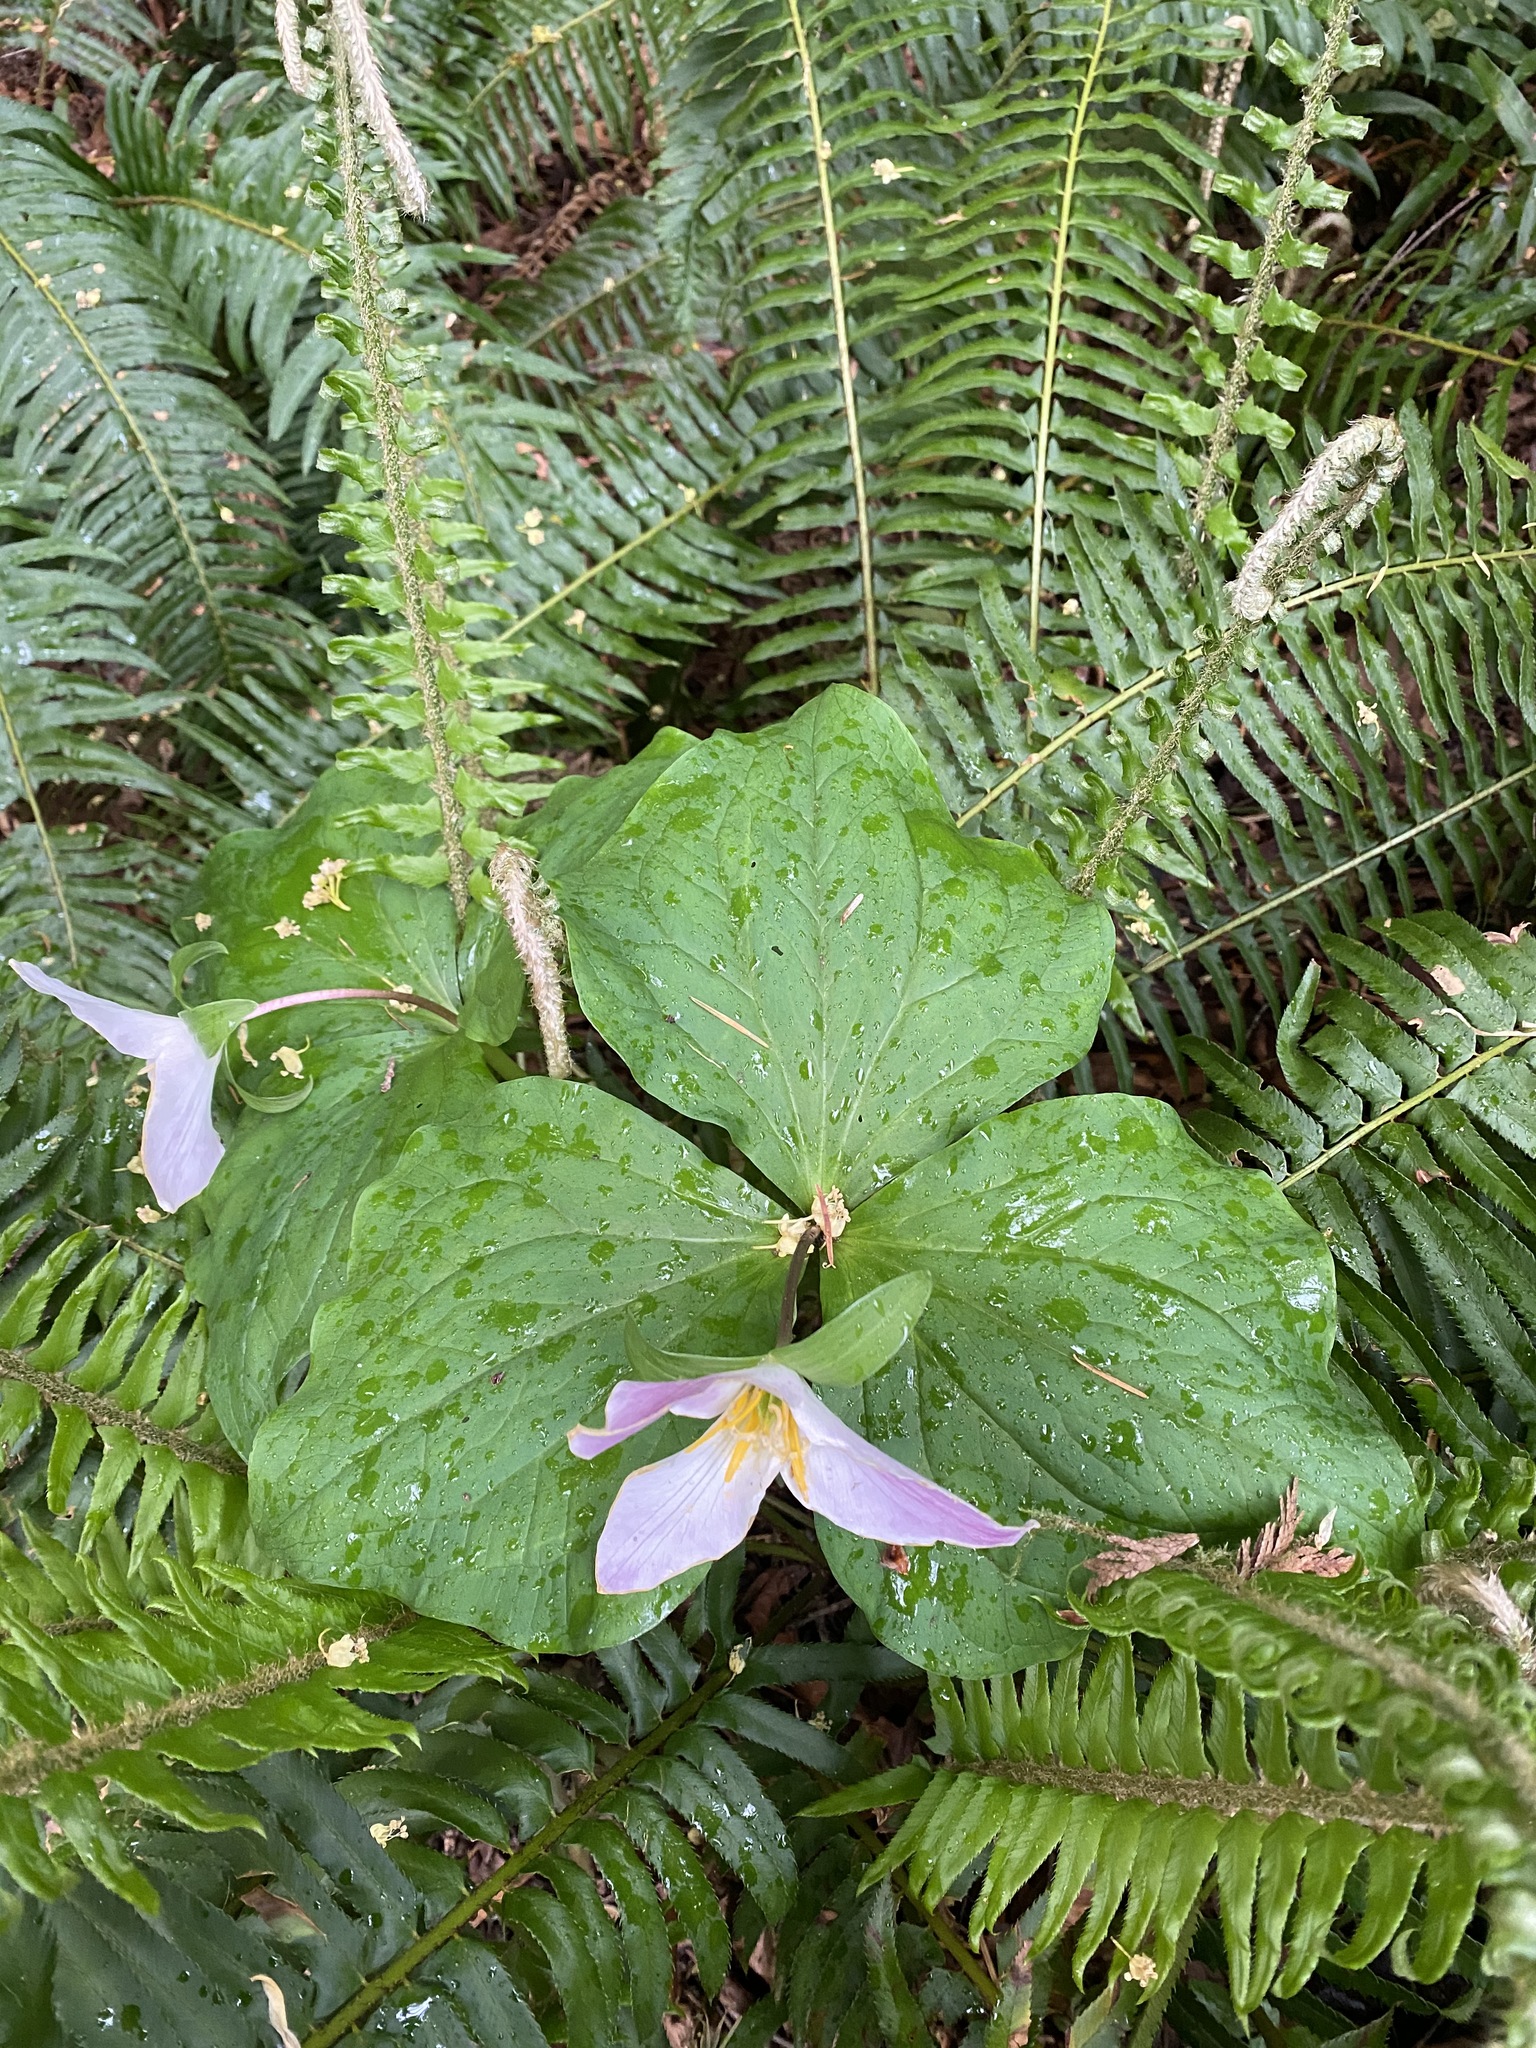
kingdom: Plantae
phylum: Tracheophyta
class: Liliopsida
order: Liliales
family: Melanthiaceae
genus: Trillium
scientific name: Trillium ovatum
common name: Pacific trillium
